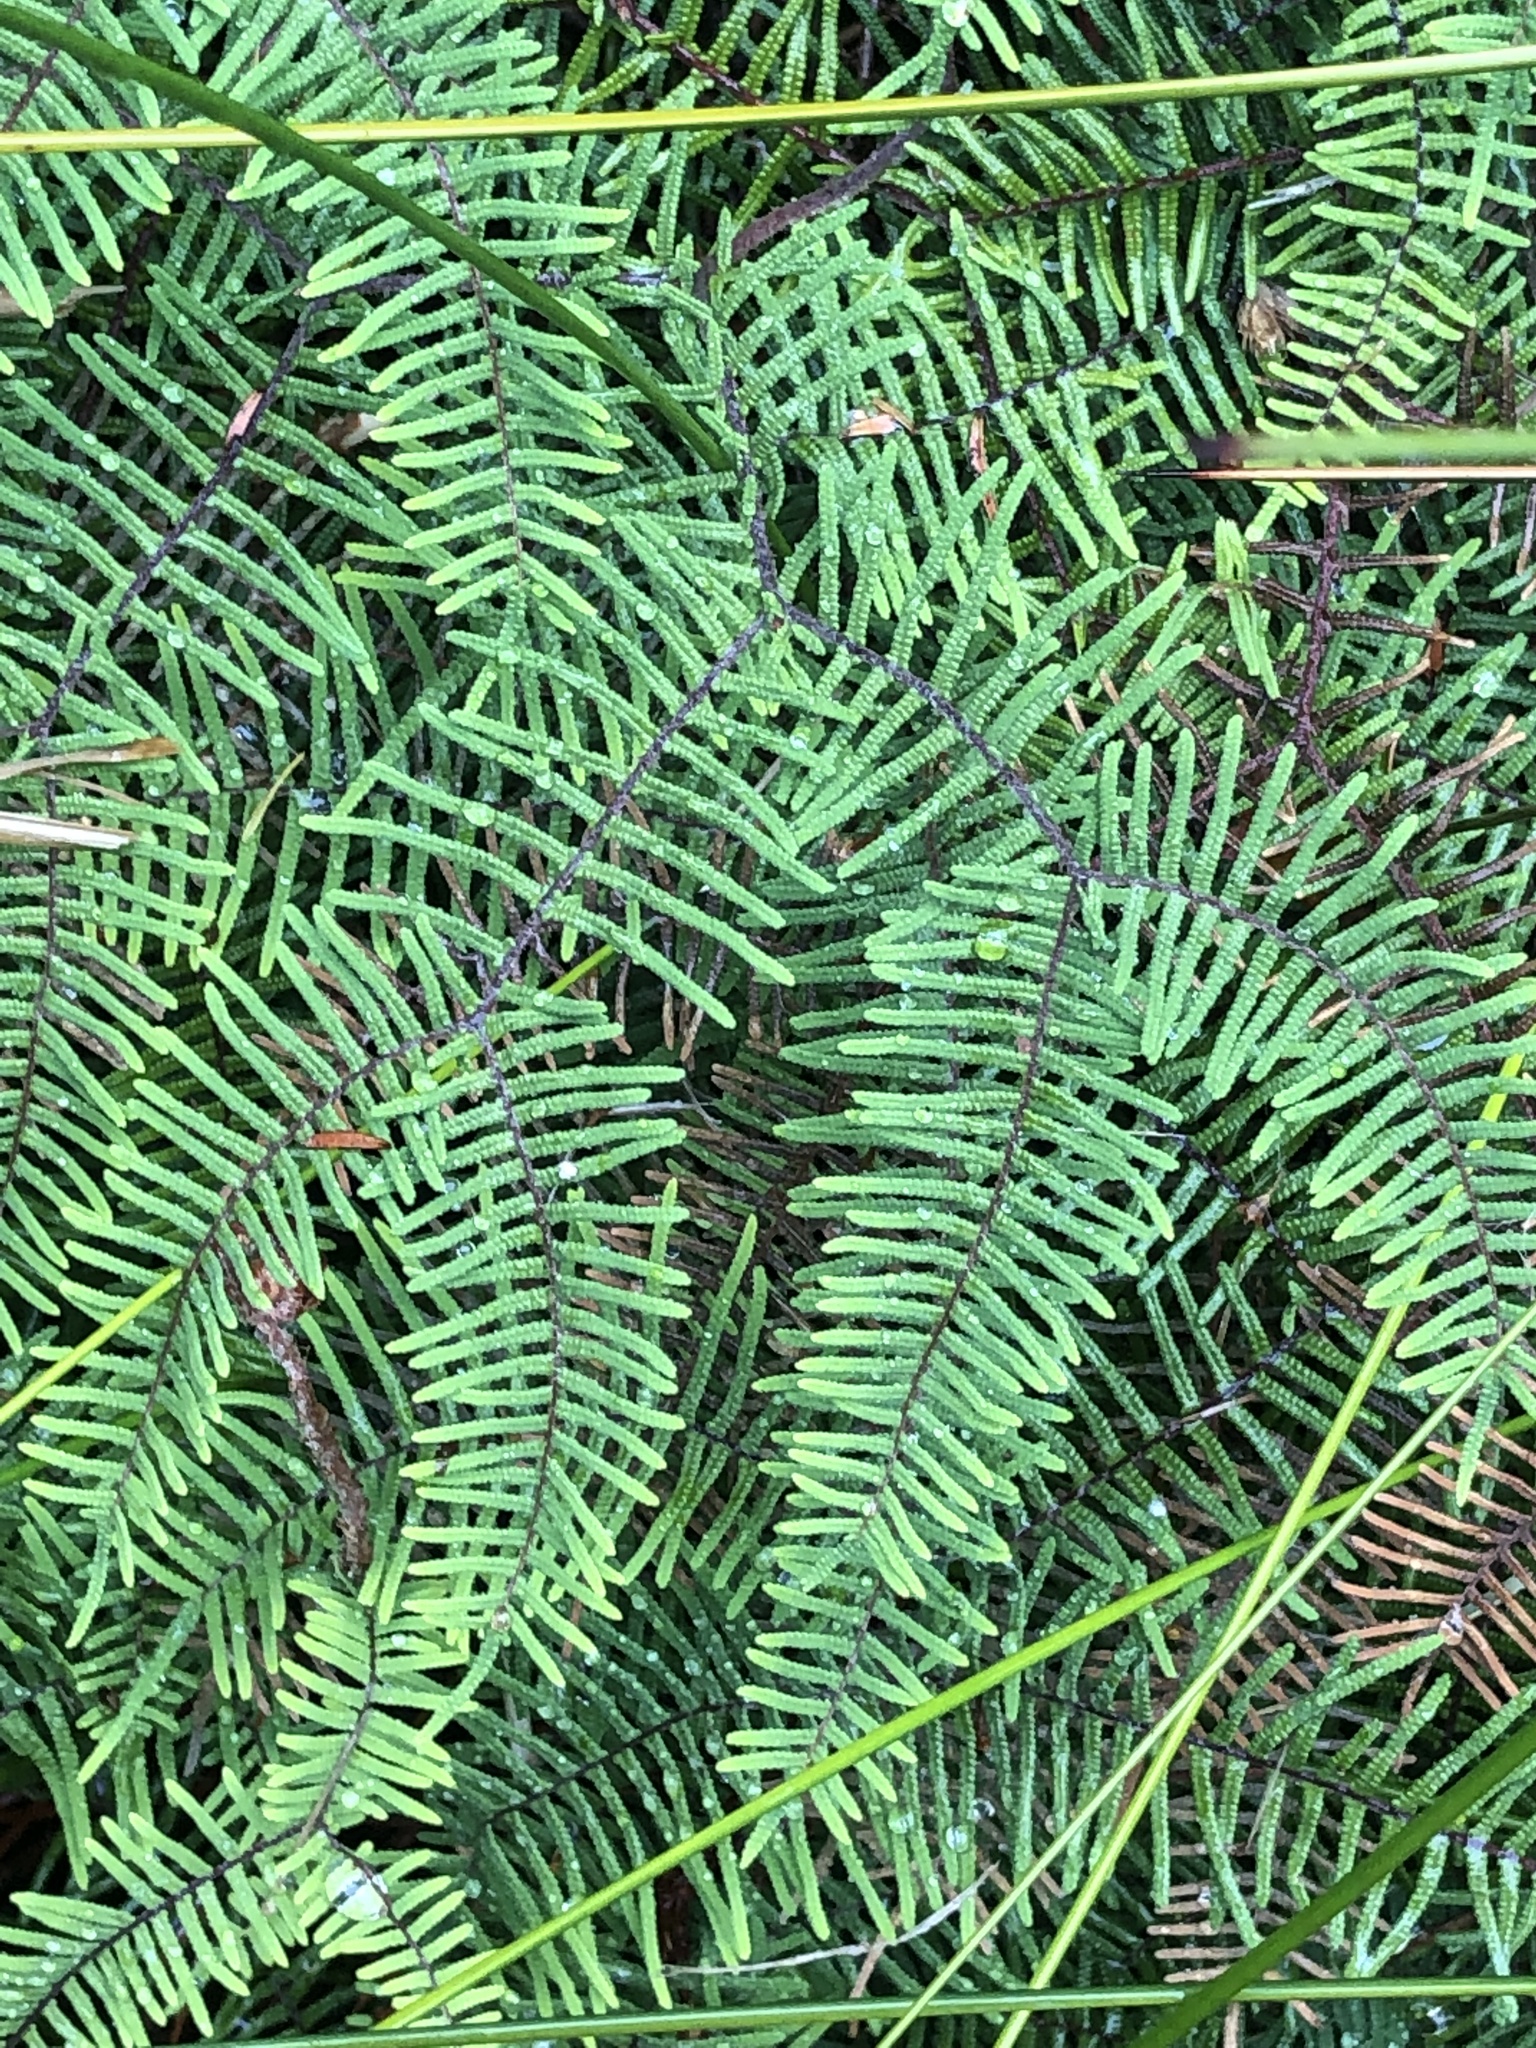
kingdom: Plantae
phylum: Tracheophyta
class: Polypodiopsida
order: Gleicheniales
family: Gleicheniaceae
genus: Gleichenia
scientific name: Gleichenia dicarpa
